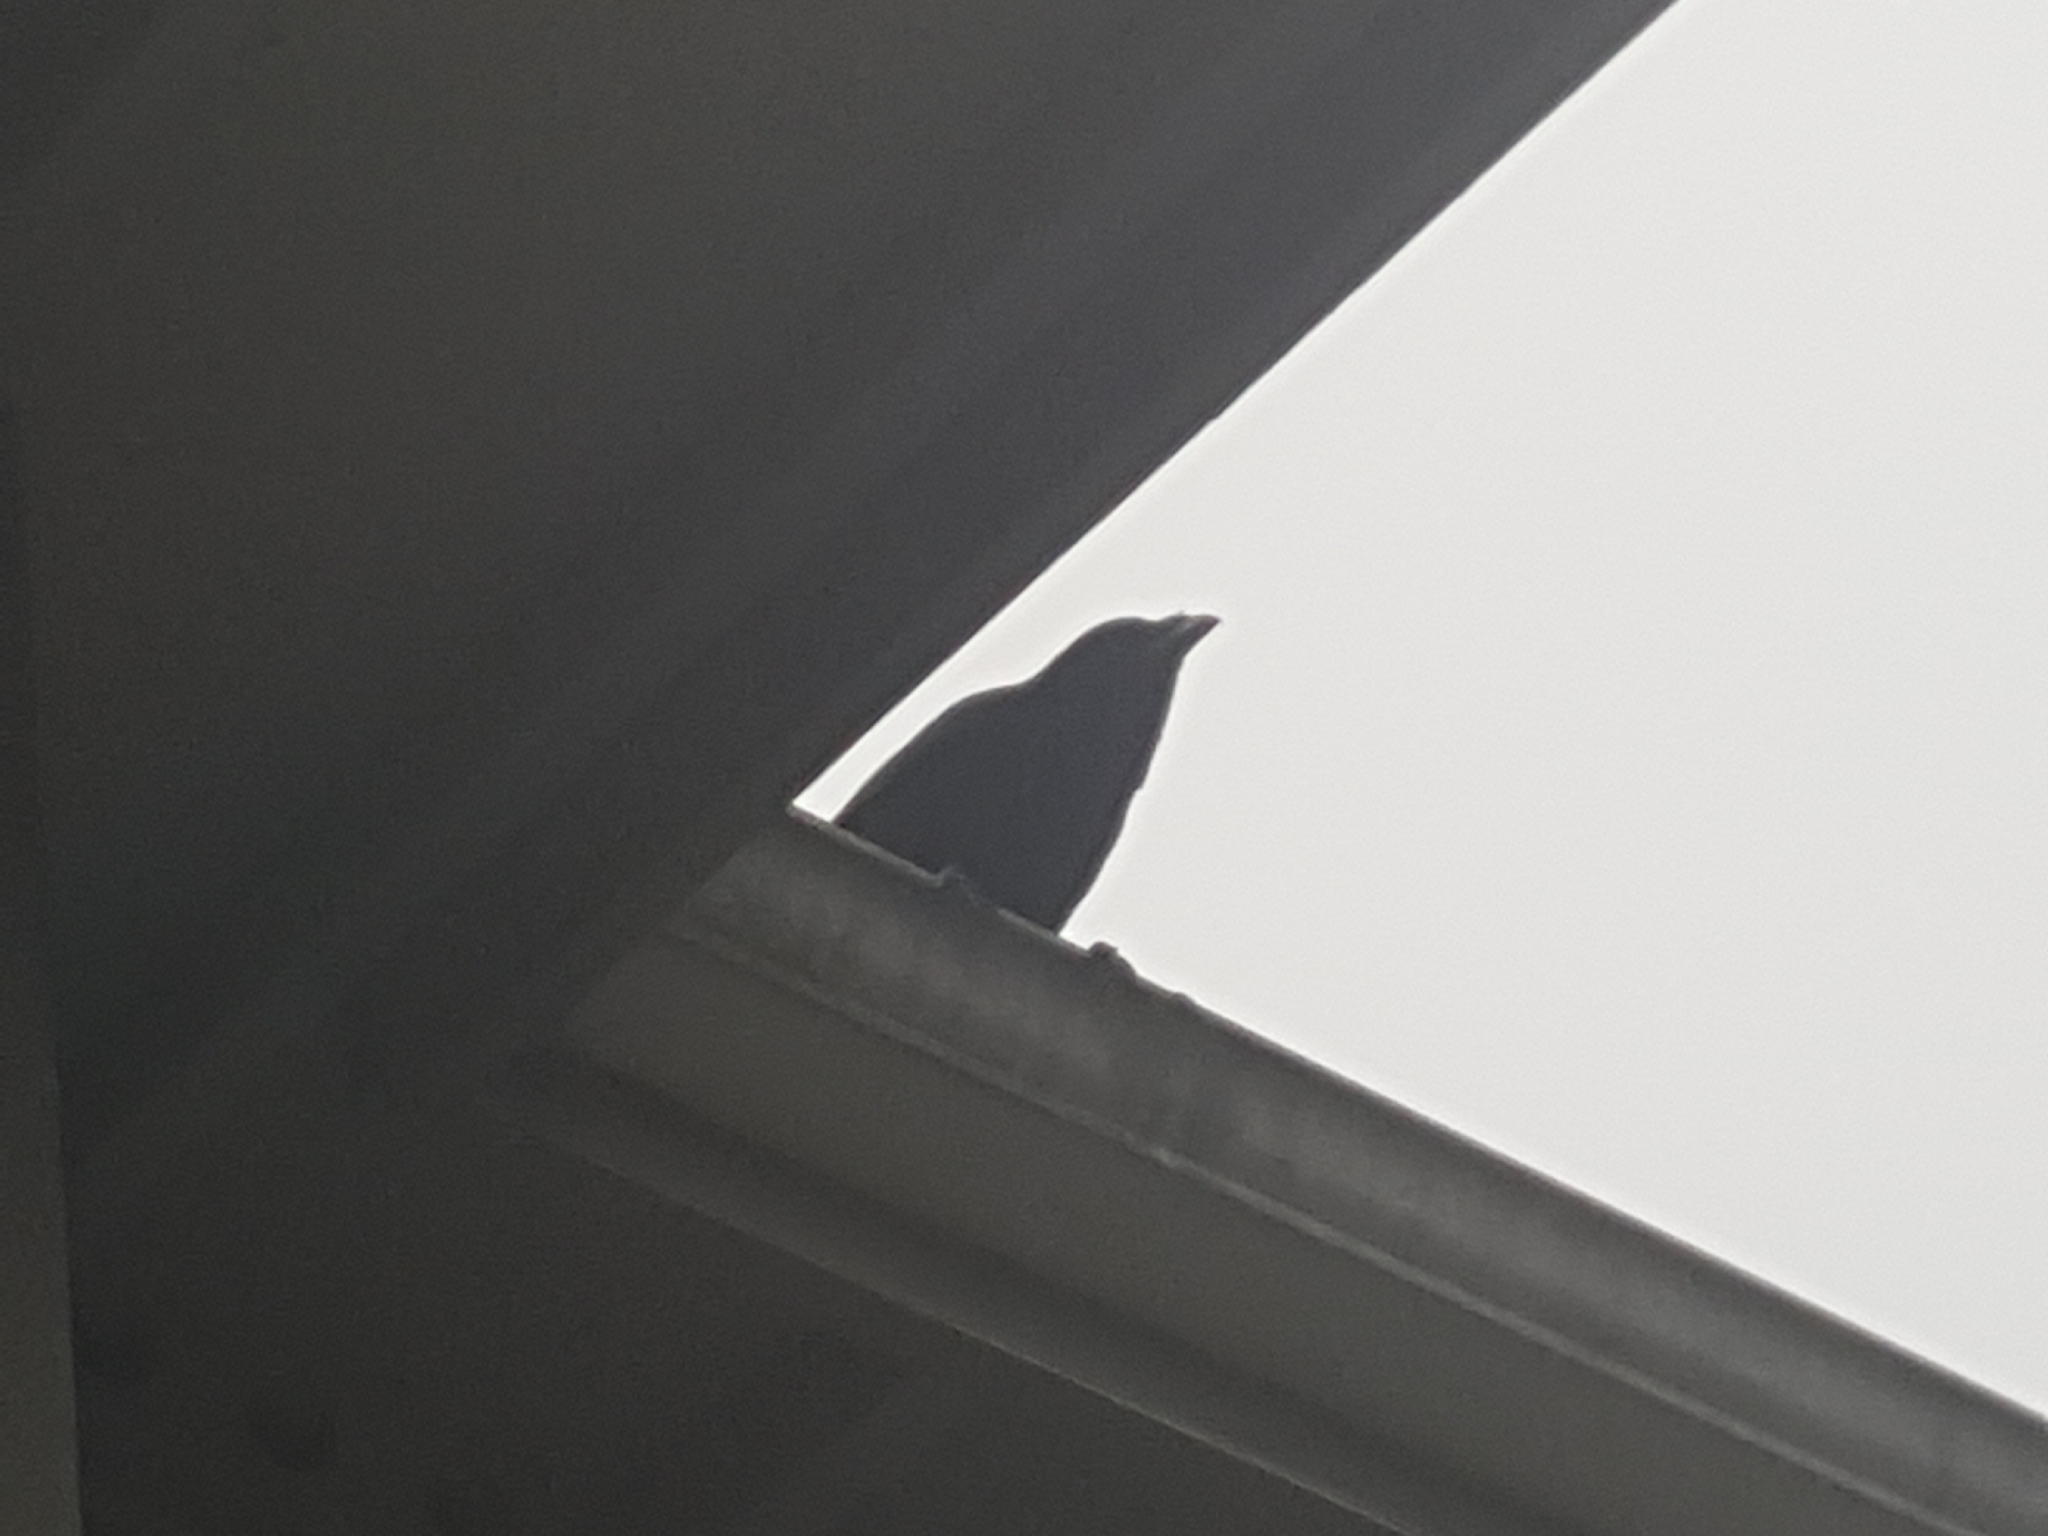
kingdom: Animalia
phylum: Chordata
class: Aves
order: Passeriformes
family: Corvidae
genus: Corvus
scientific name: Corvus brachyrhynchos
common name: American crow
